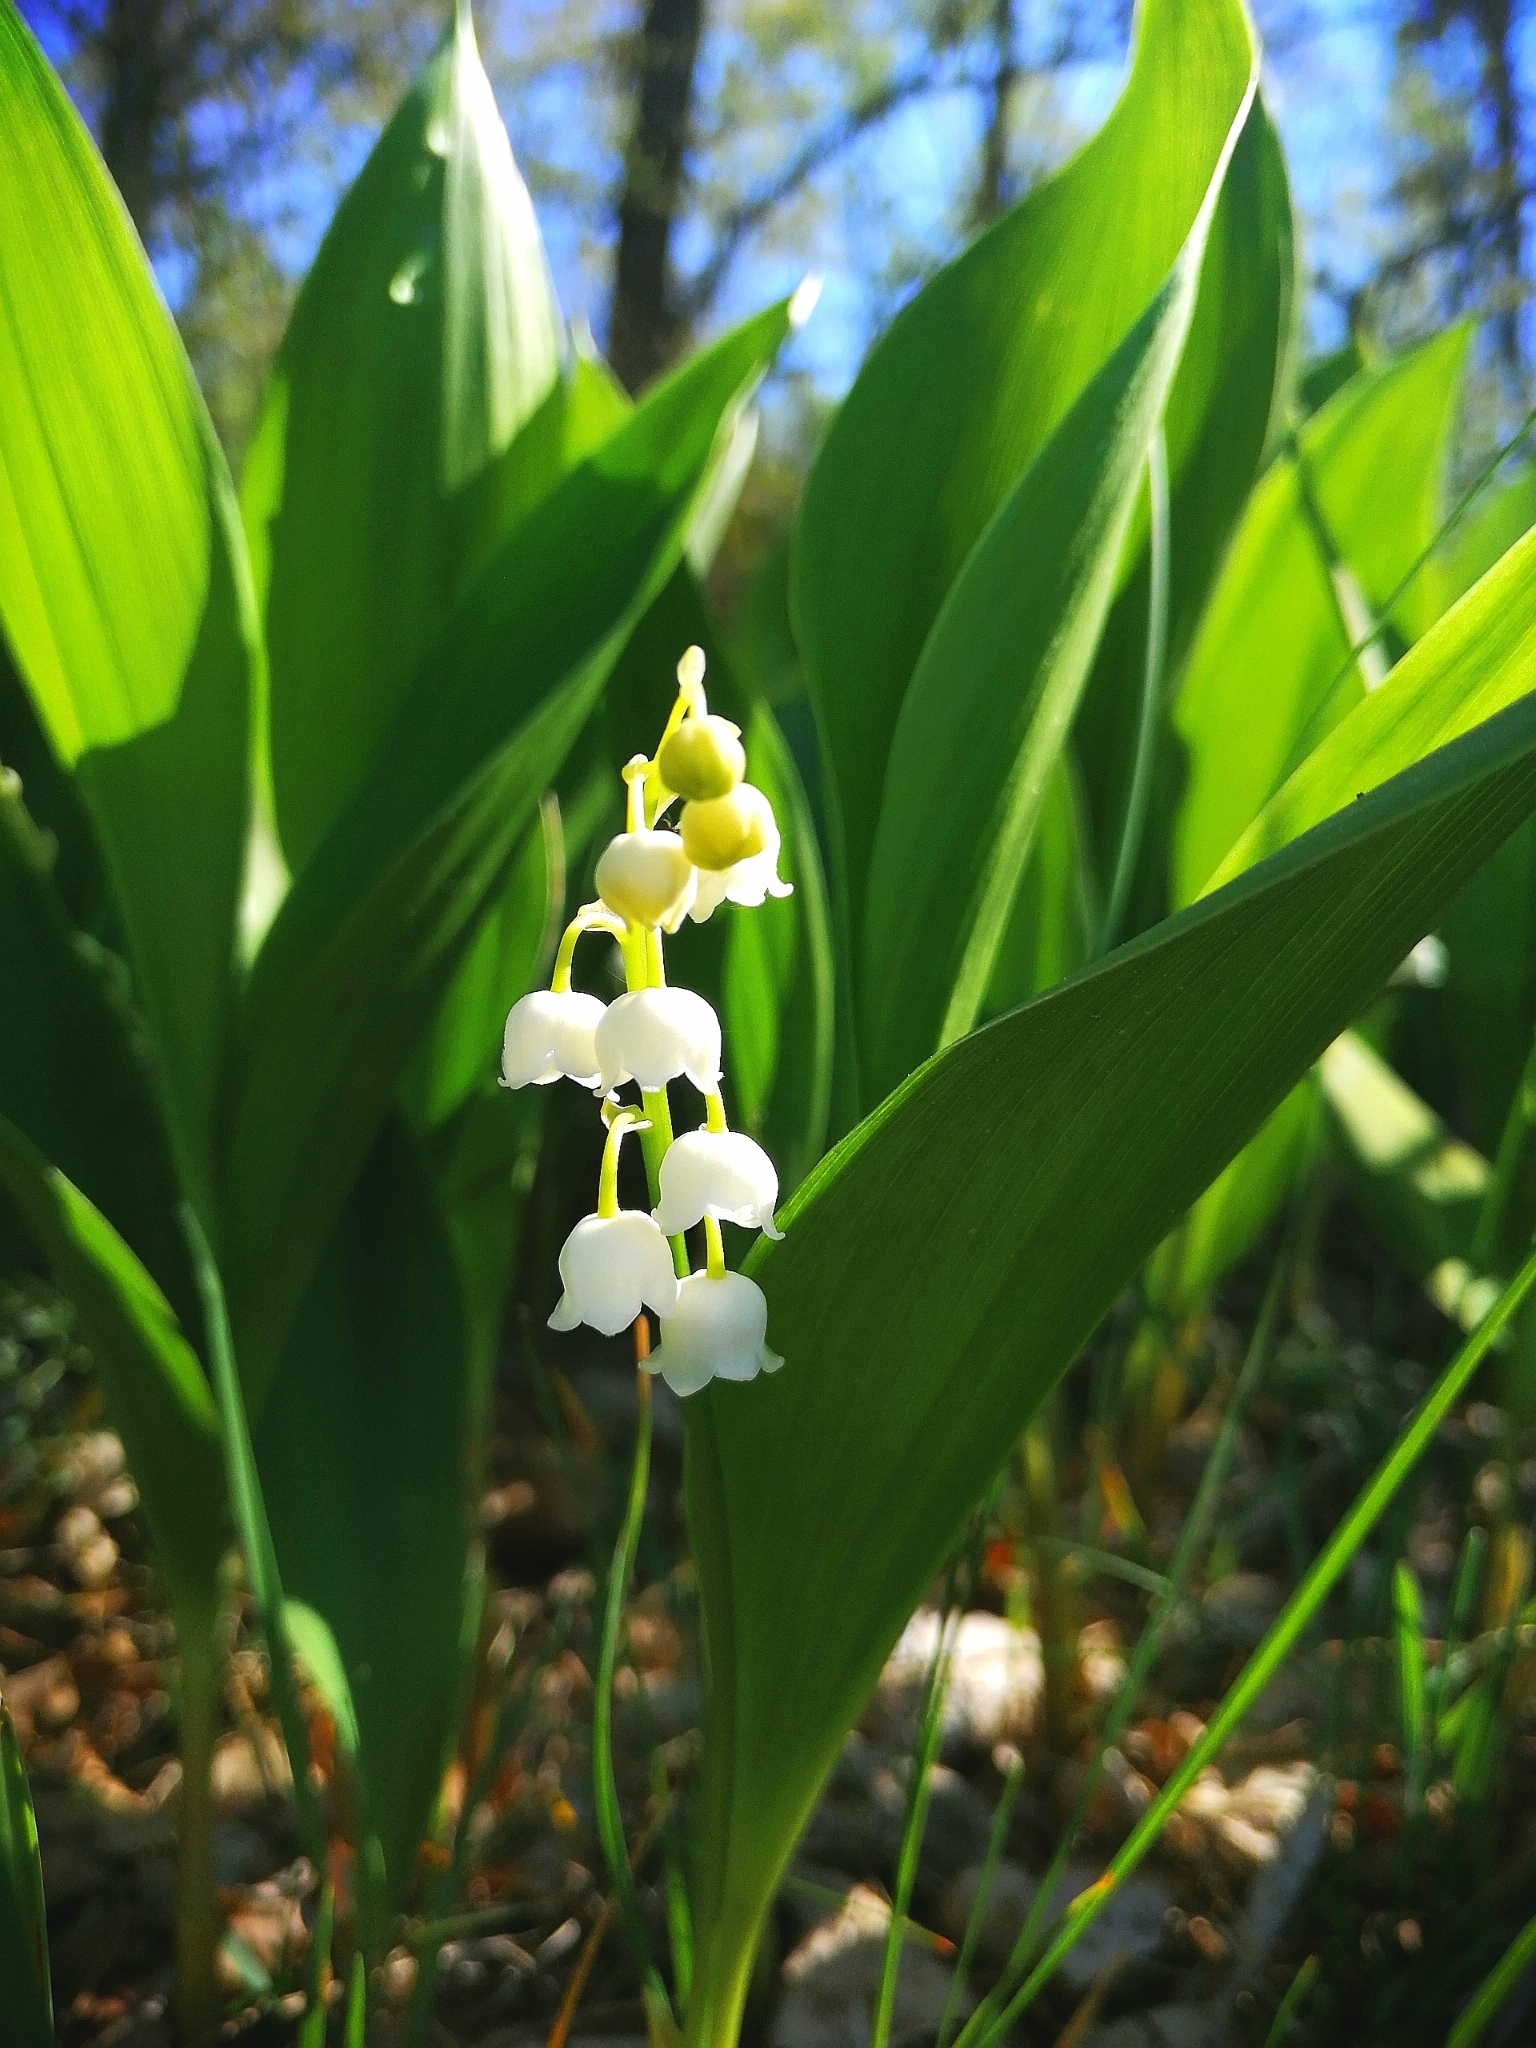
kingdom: Plantae
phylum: Tracheophyta
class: Liliopsida
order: Asparagales
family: Asparagaceae
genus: Convallaria
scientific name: Convallaria majalis
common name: Lily-of-the-valley
